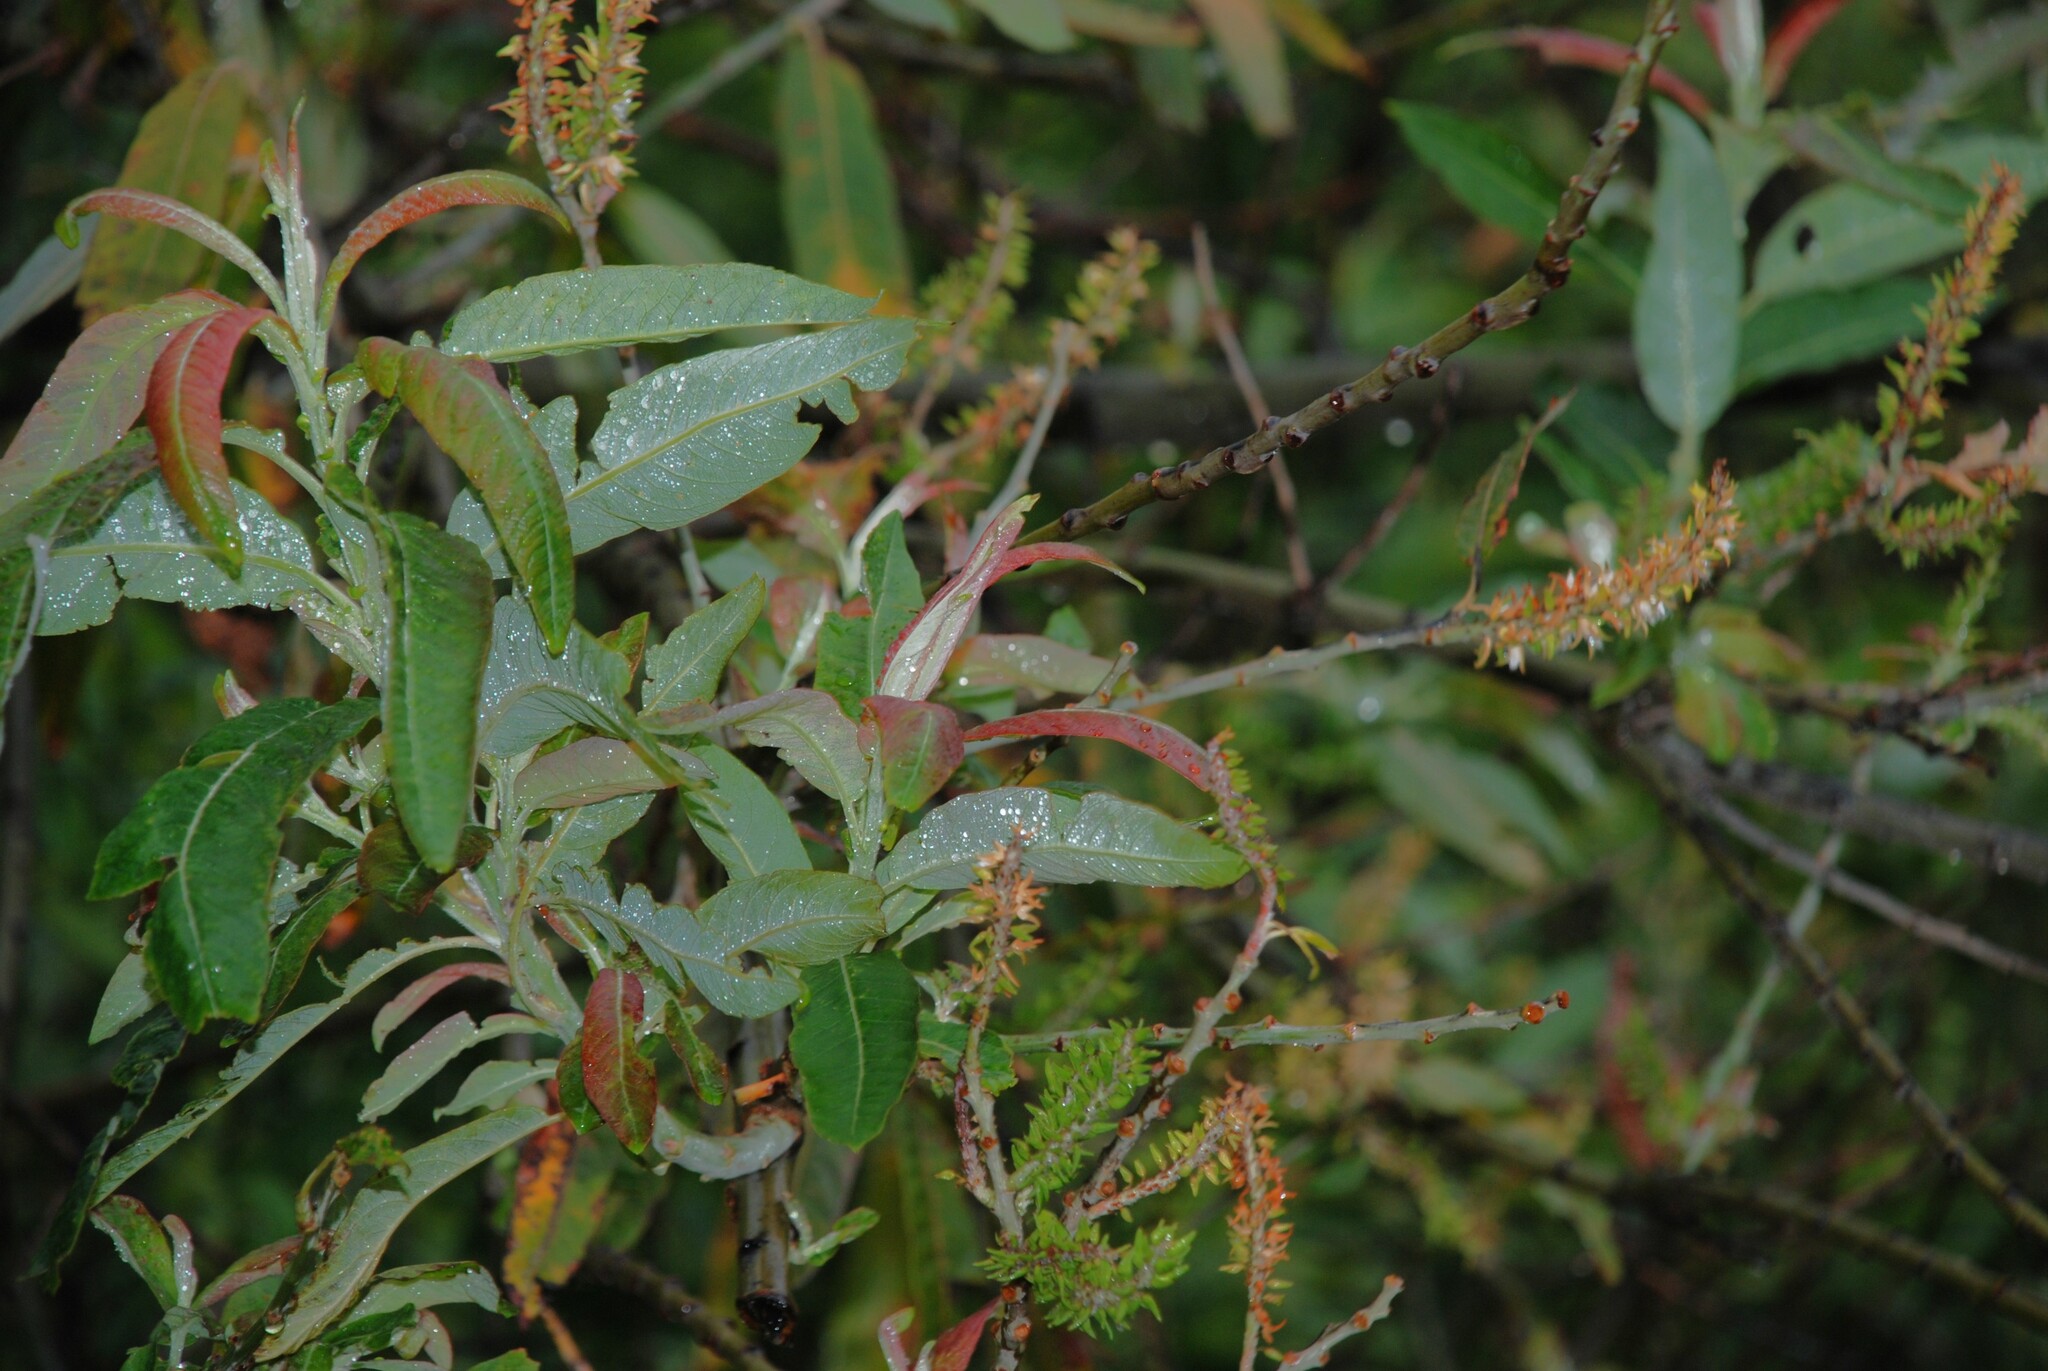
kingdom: Plantae
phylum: Tracheophyta
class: Magnoliopsida
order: Malpighiales
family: Salicaceae
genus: Salix
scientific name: Salix pedicellata
